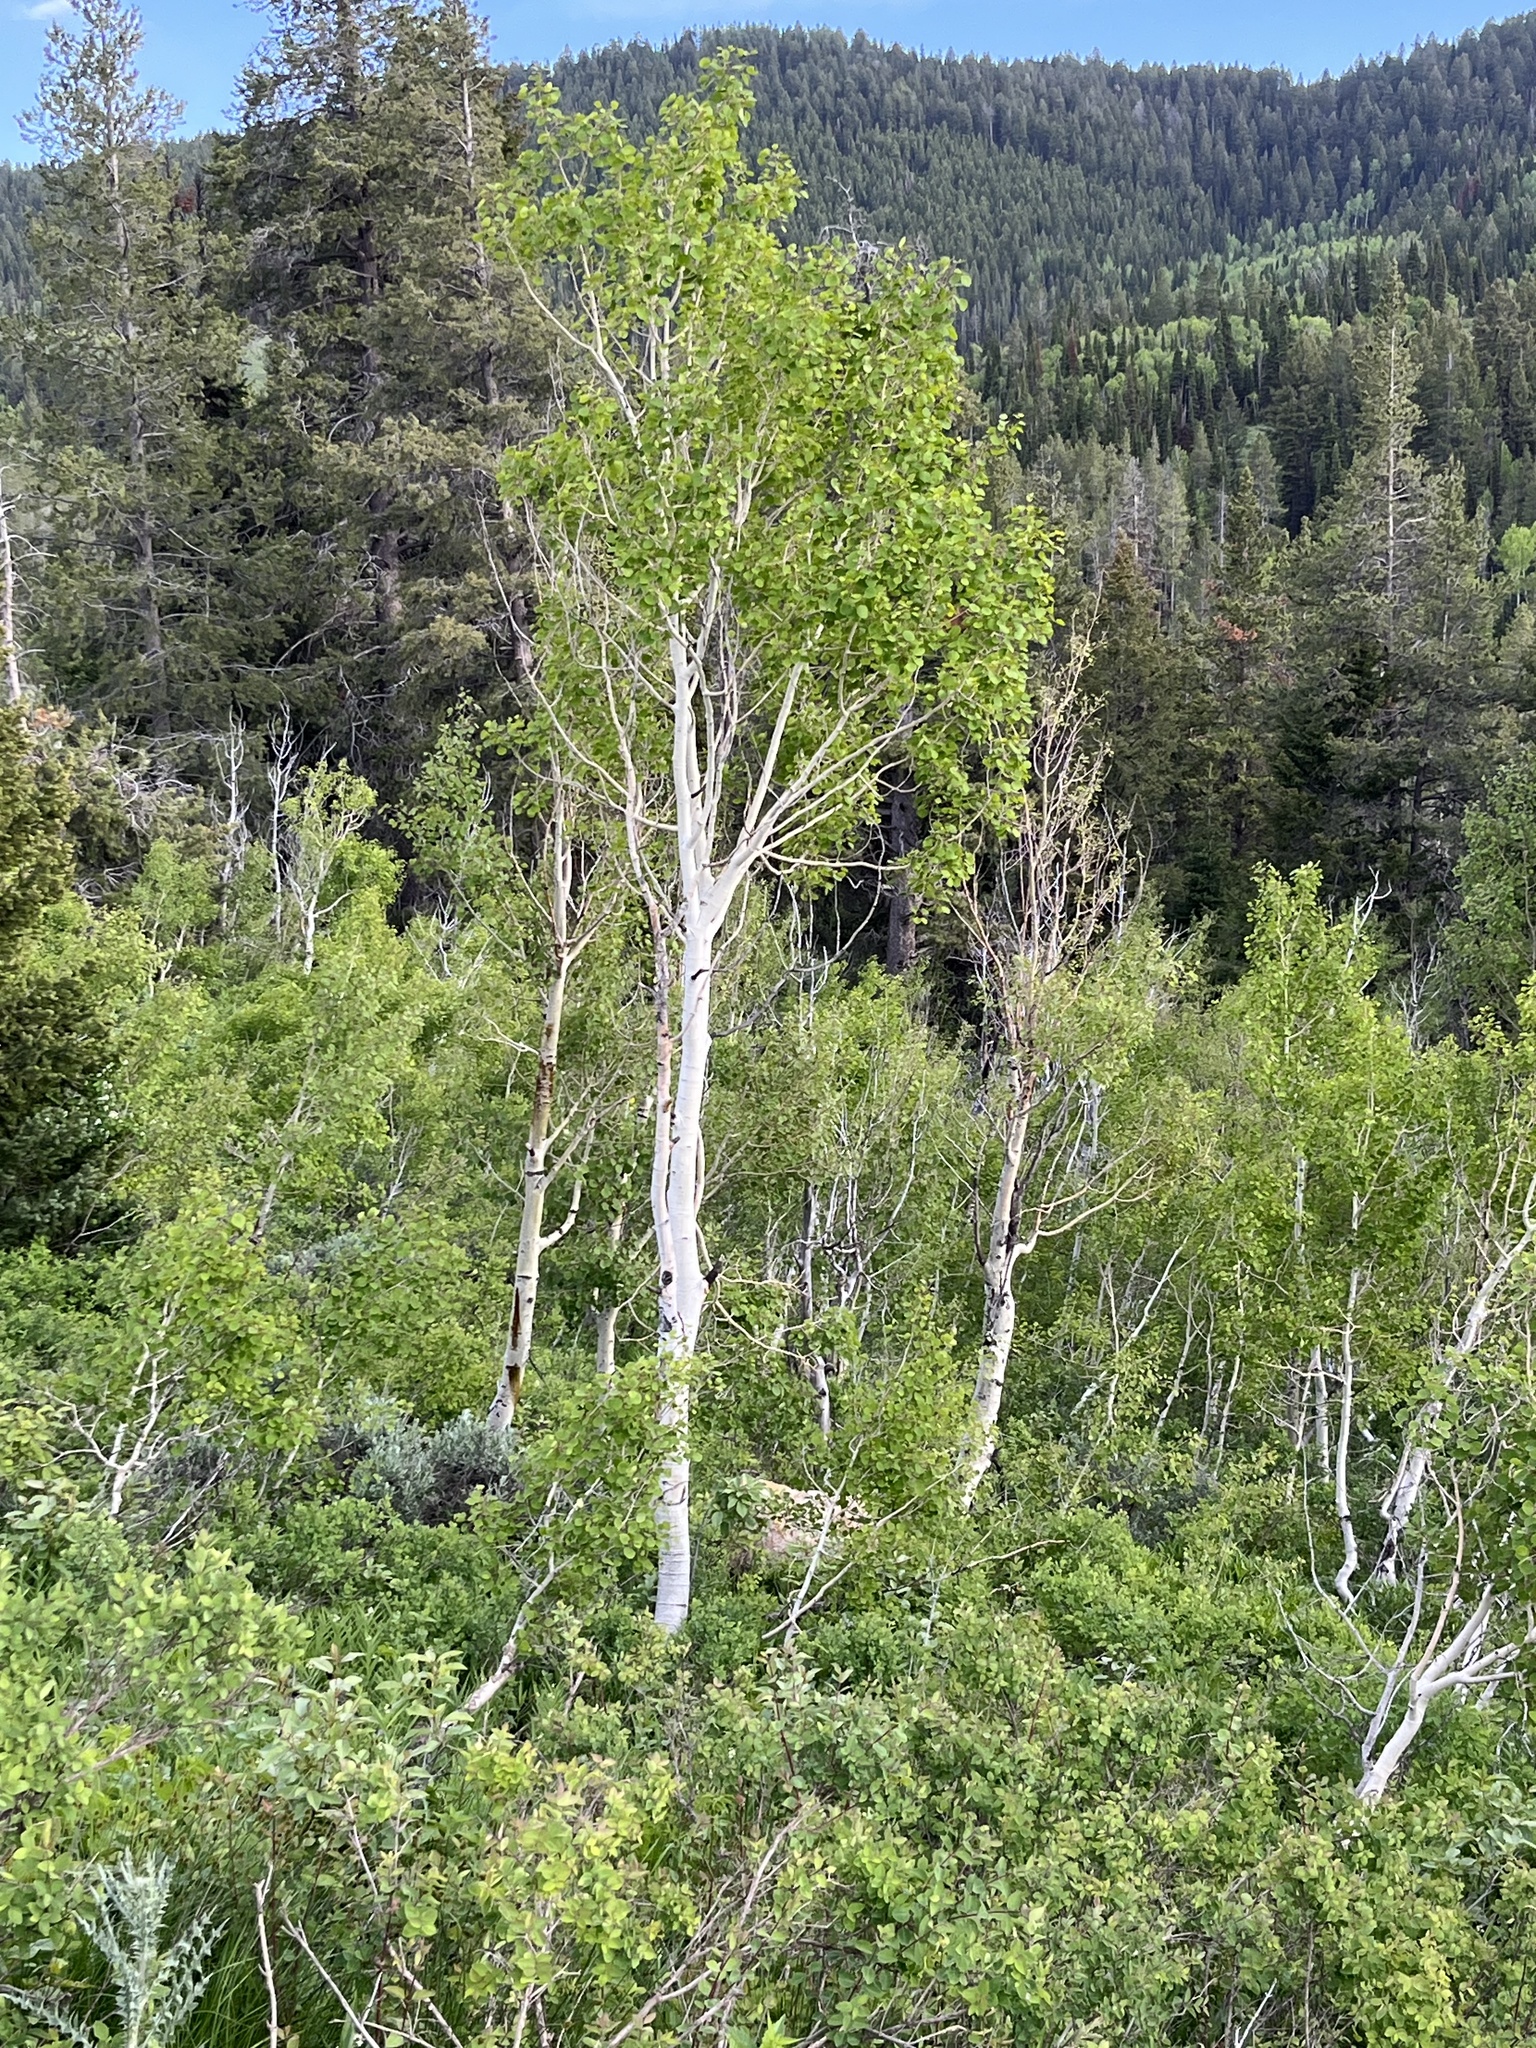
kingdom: Plantae
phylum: Tracheophyta
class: Magnoliopsida
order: Malpighiales
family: Salicaceae
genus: Populus
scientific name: Populus tremuloides
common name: Quaking aspen
